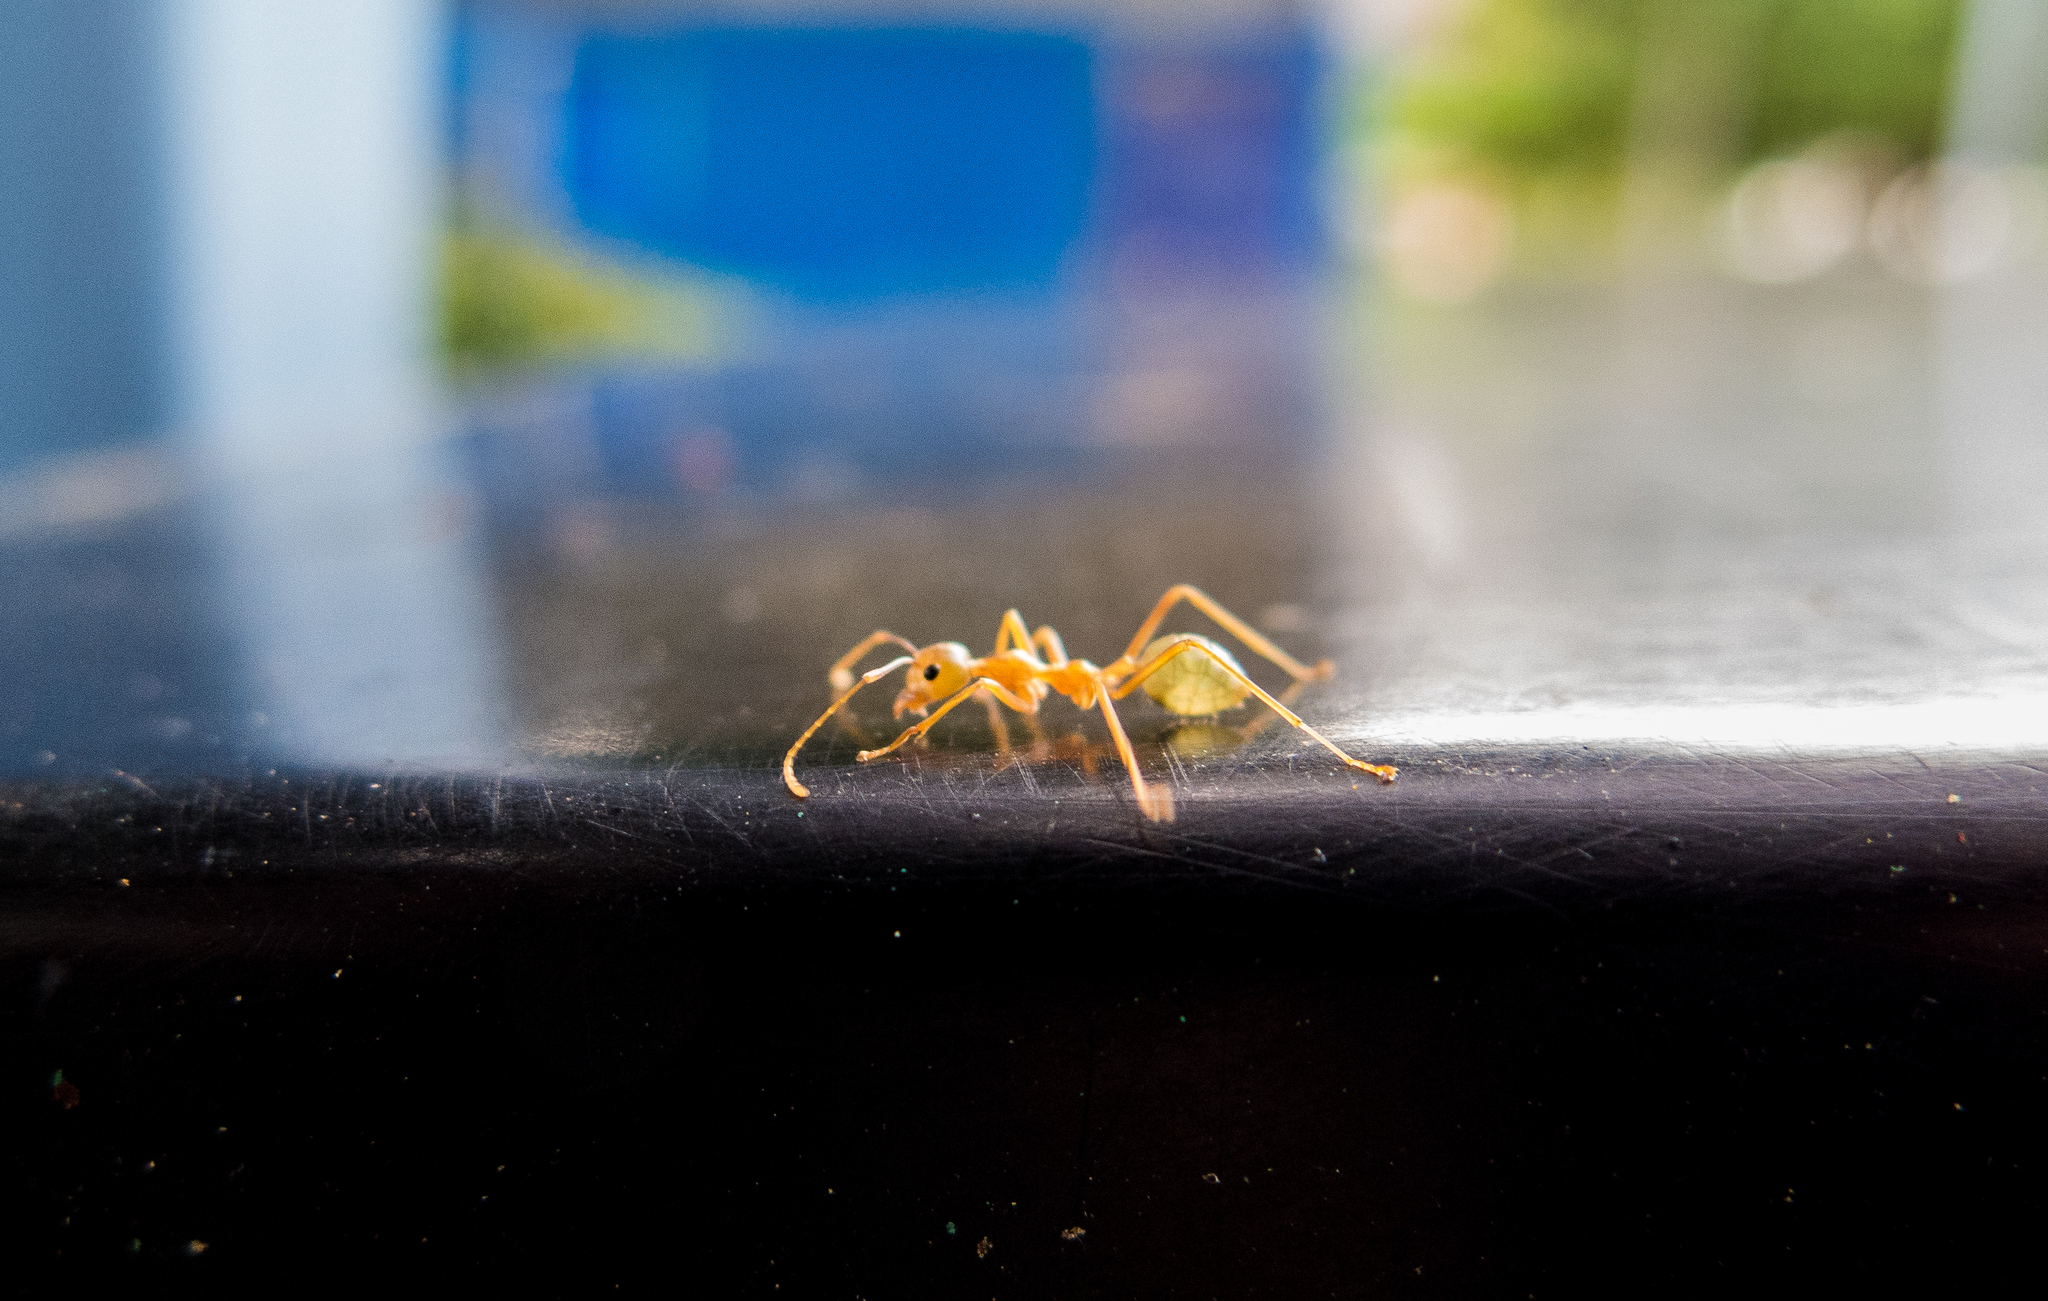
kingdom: Animalia
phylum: Arthropoda
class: Insecta
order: Hymenoptera
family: Formicidae
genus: Oecophylla
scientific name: Oecophylla smaragdina
